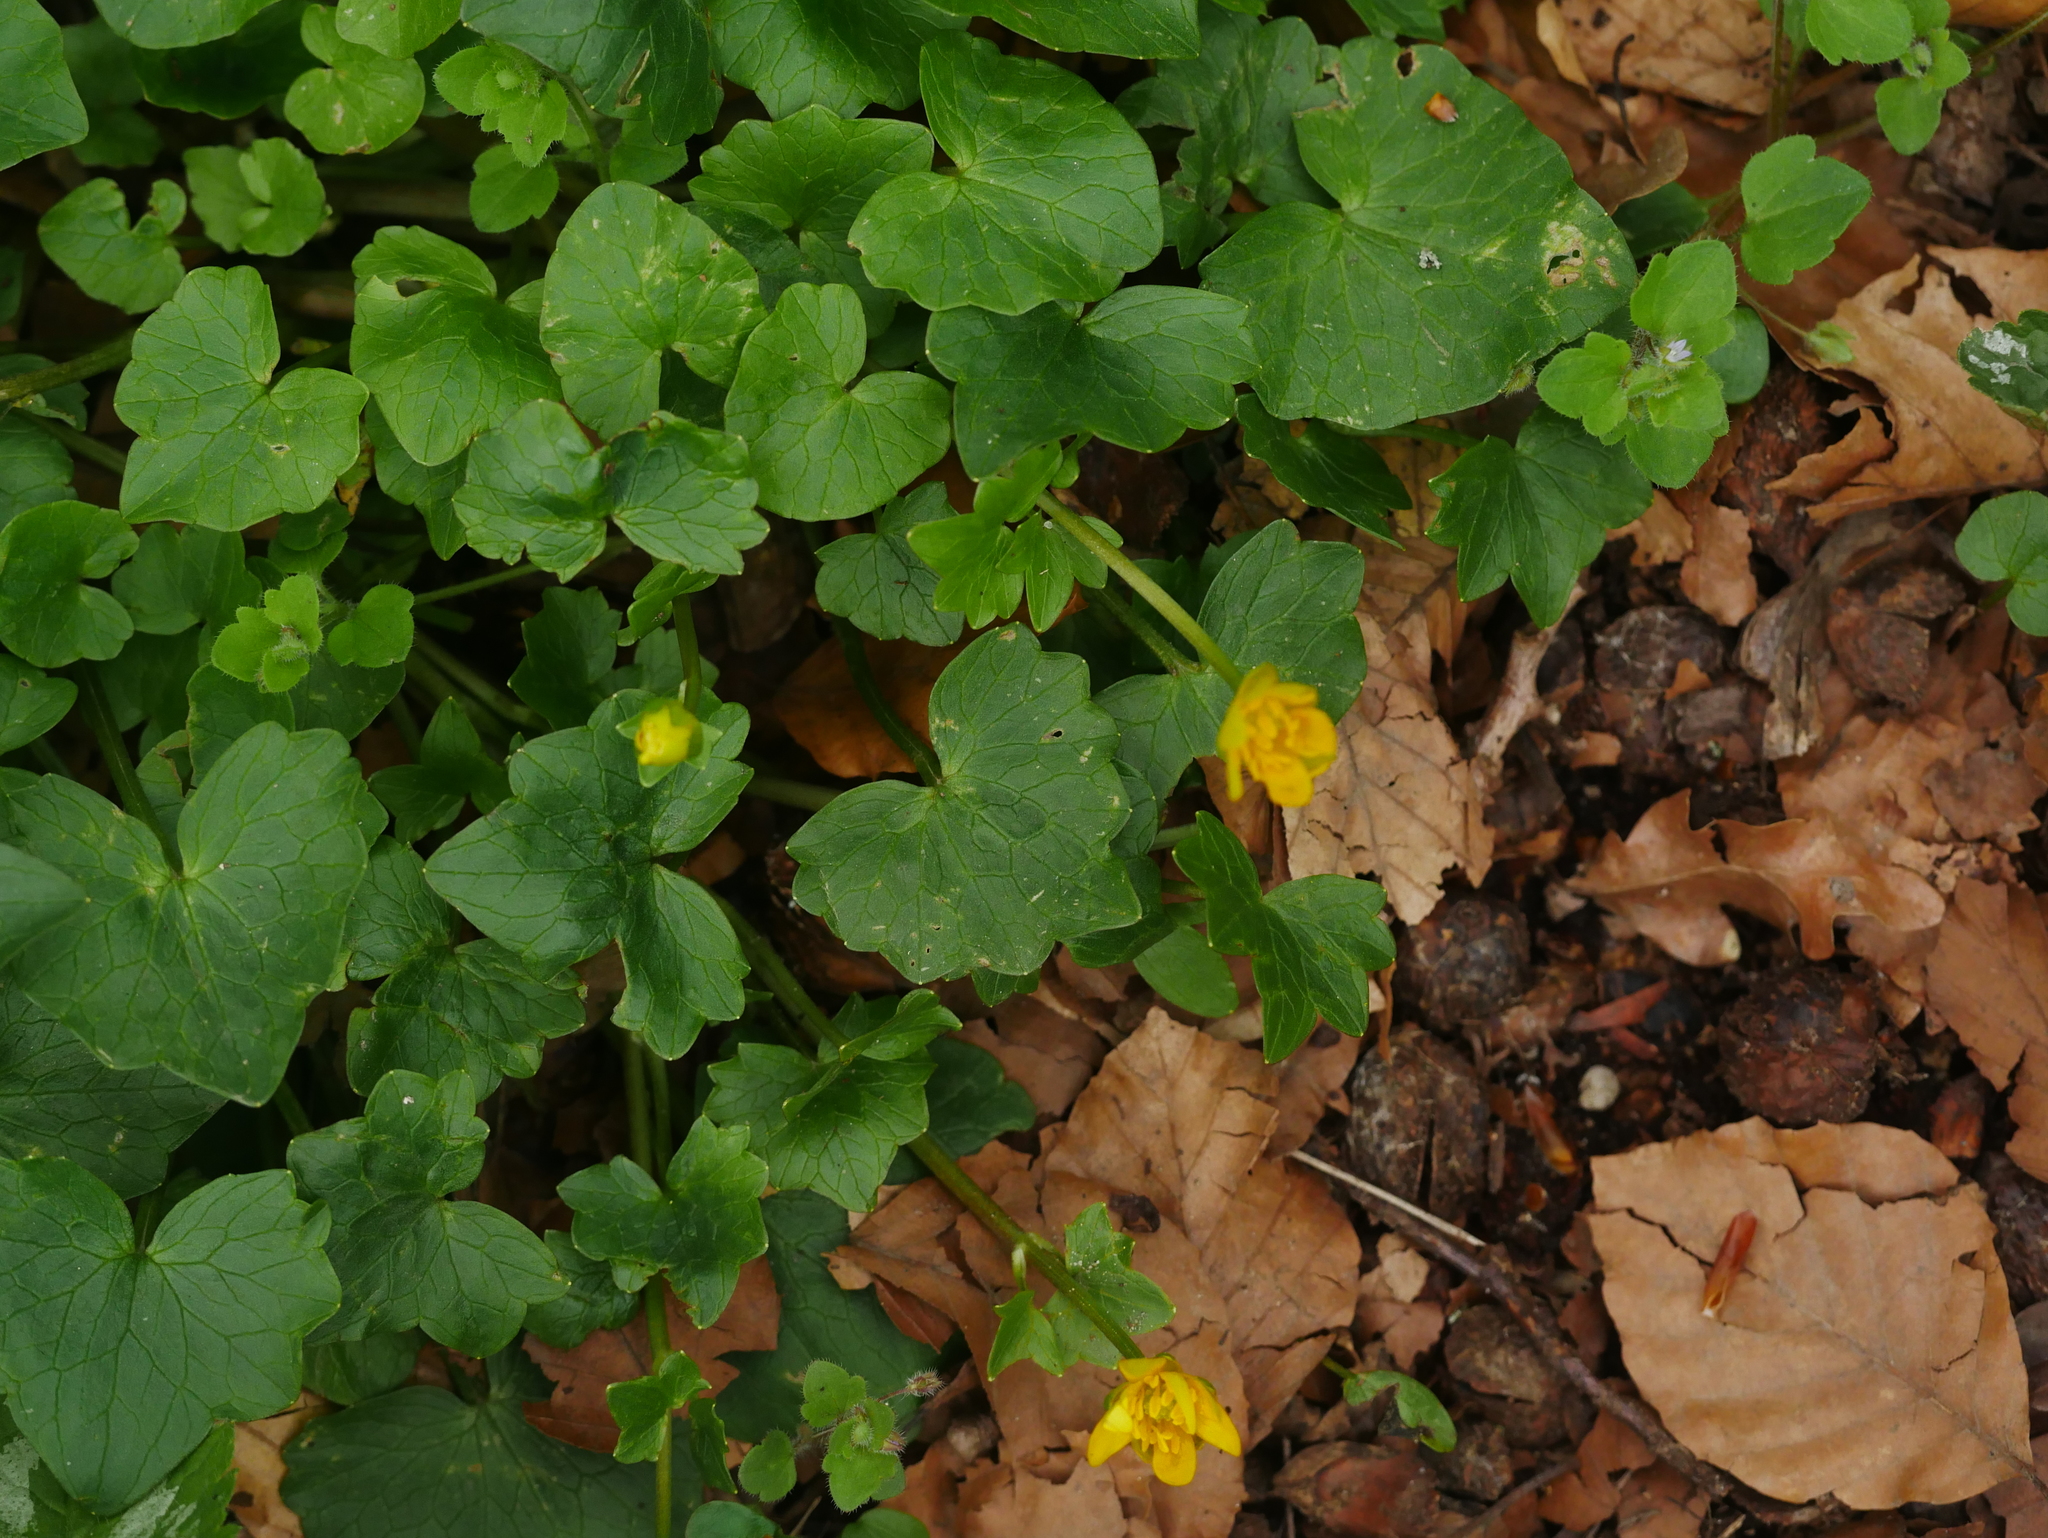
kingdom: Plantae
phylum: Tracheophyta
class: Magnoliopsida
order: Ranunculales
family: Ranunculaceae
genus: Ficaria
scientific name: Ficaria verna
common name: Lesser celandine
